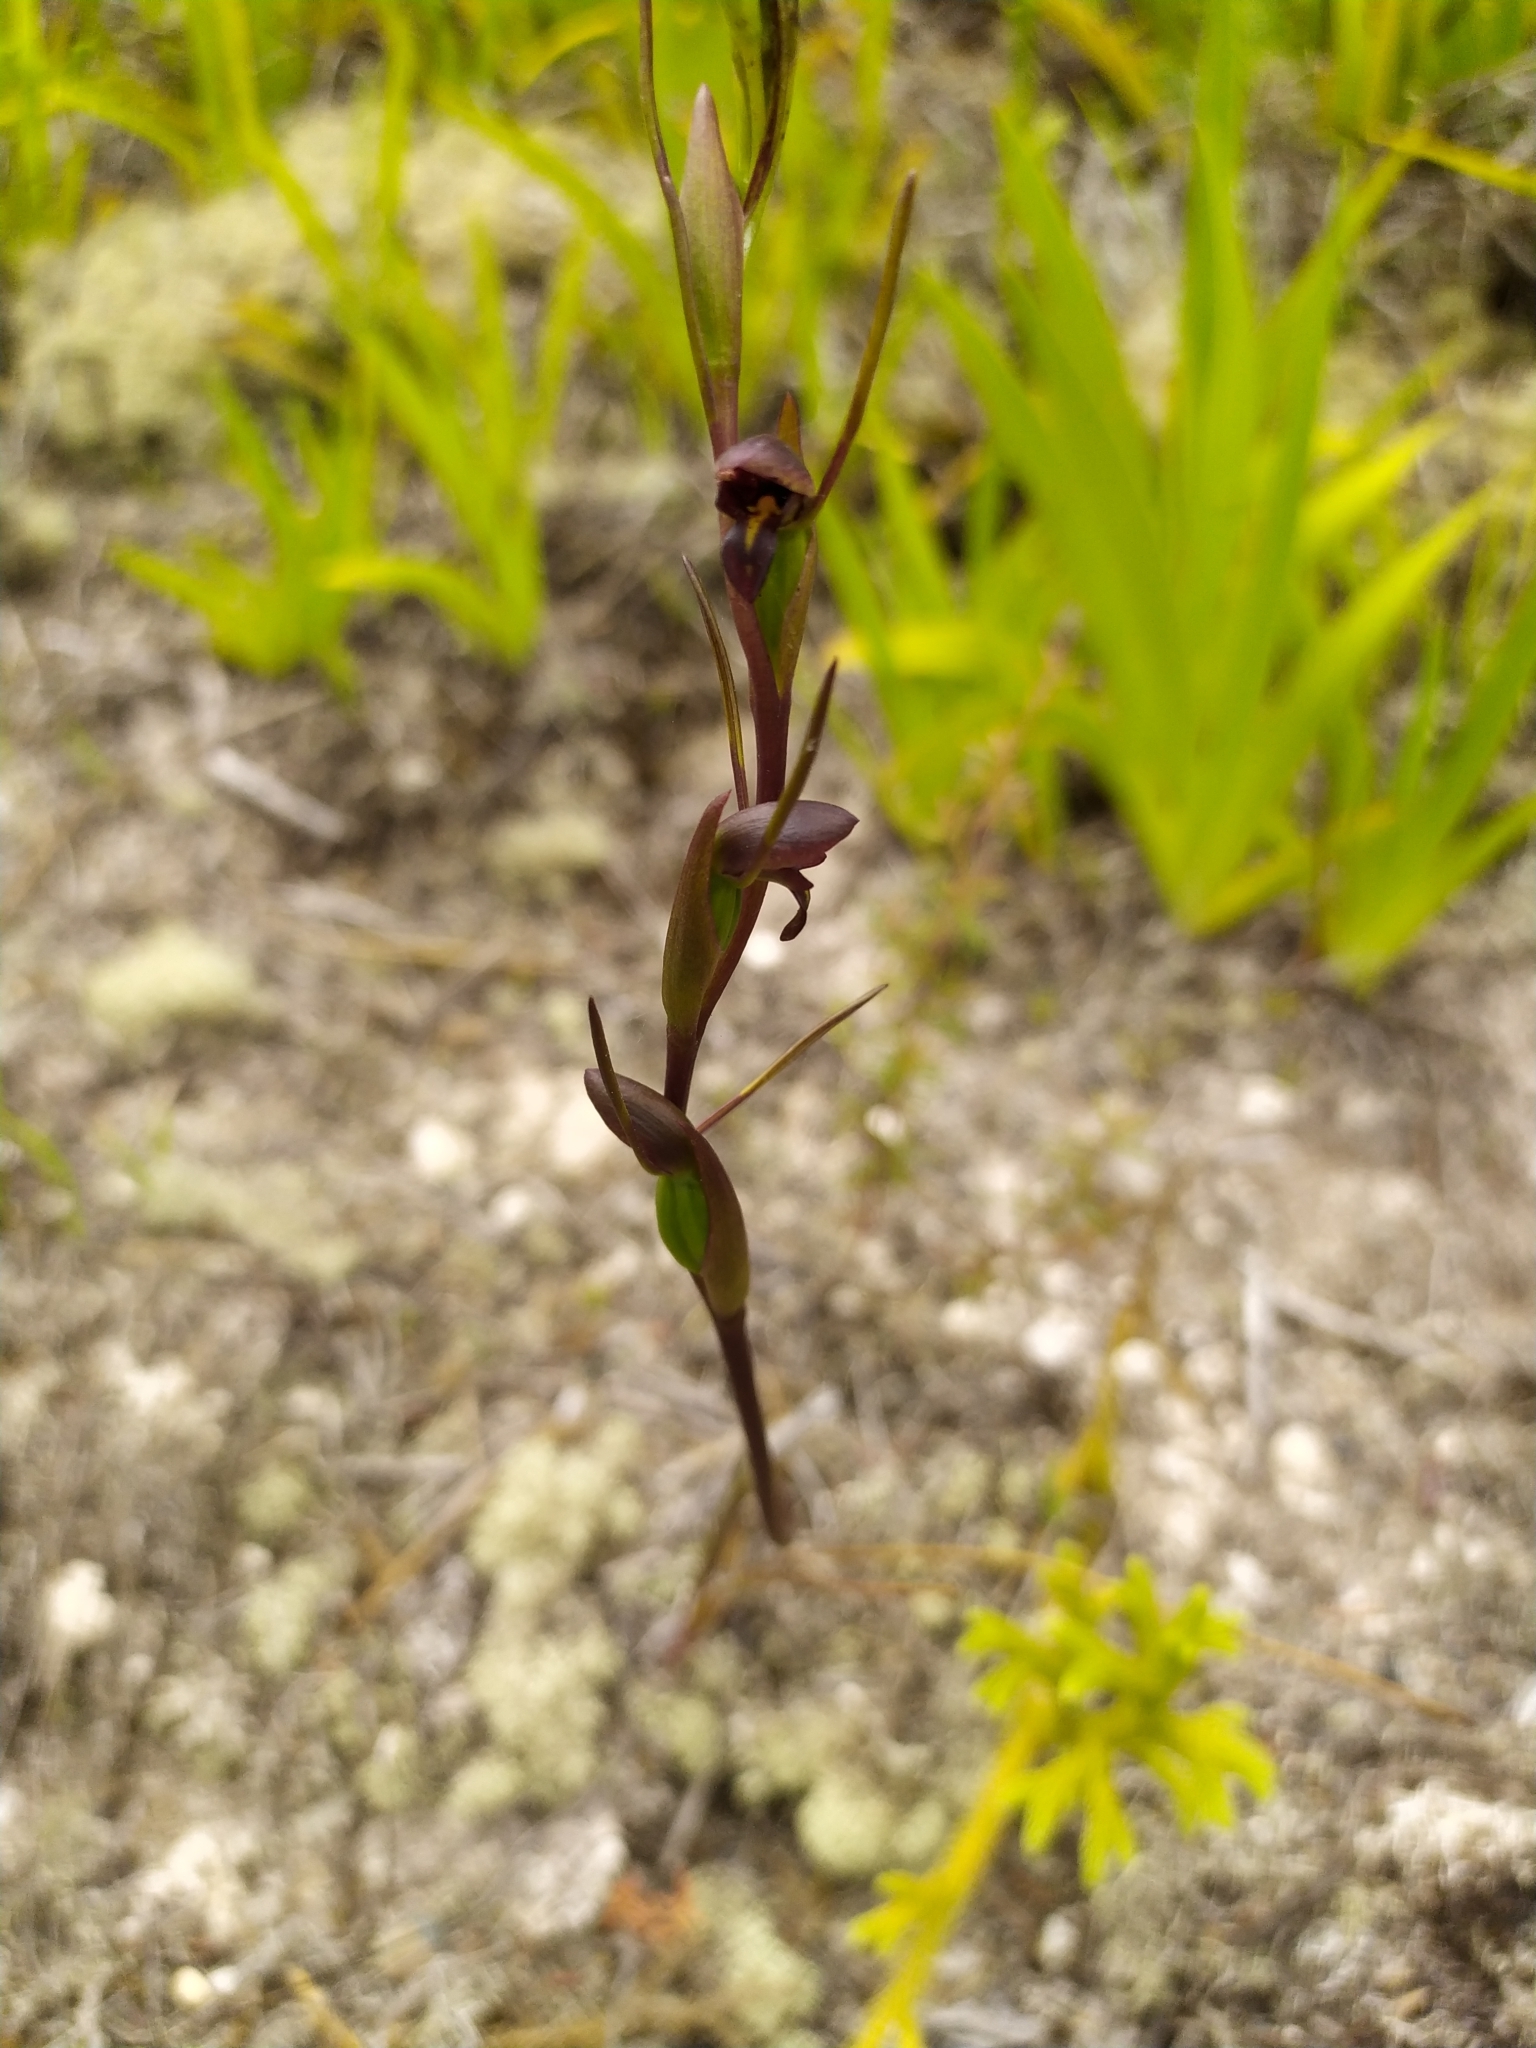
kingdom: Plantae
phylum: Tracheophyta
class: Liliopsida
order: Asparagales
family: Orchidaceae
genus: Orthoceras
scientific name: Orthoceras novae-zeelandiae
